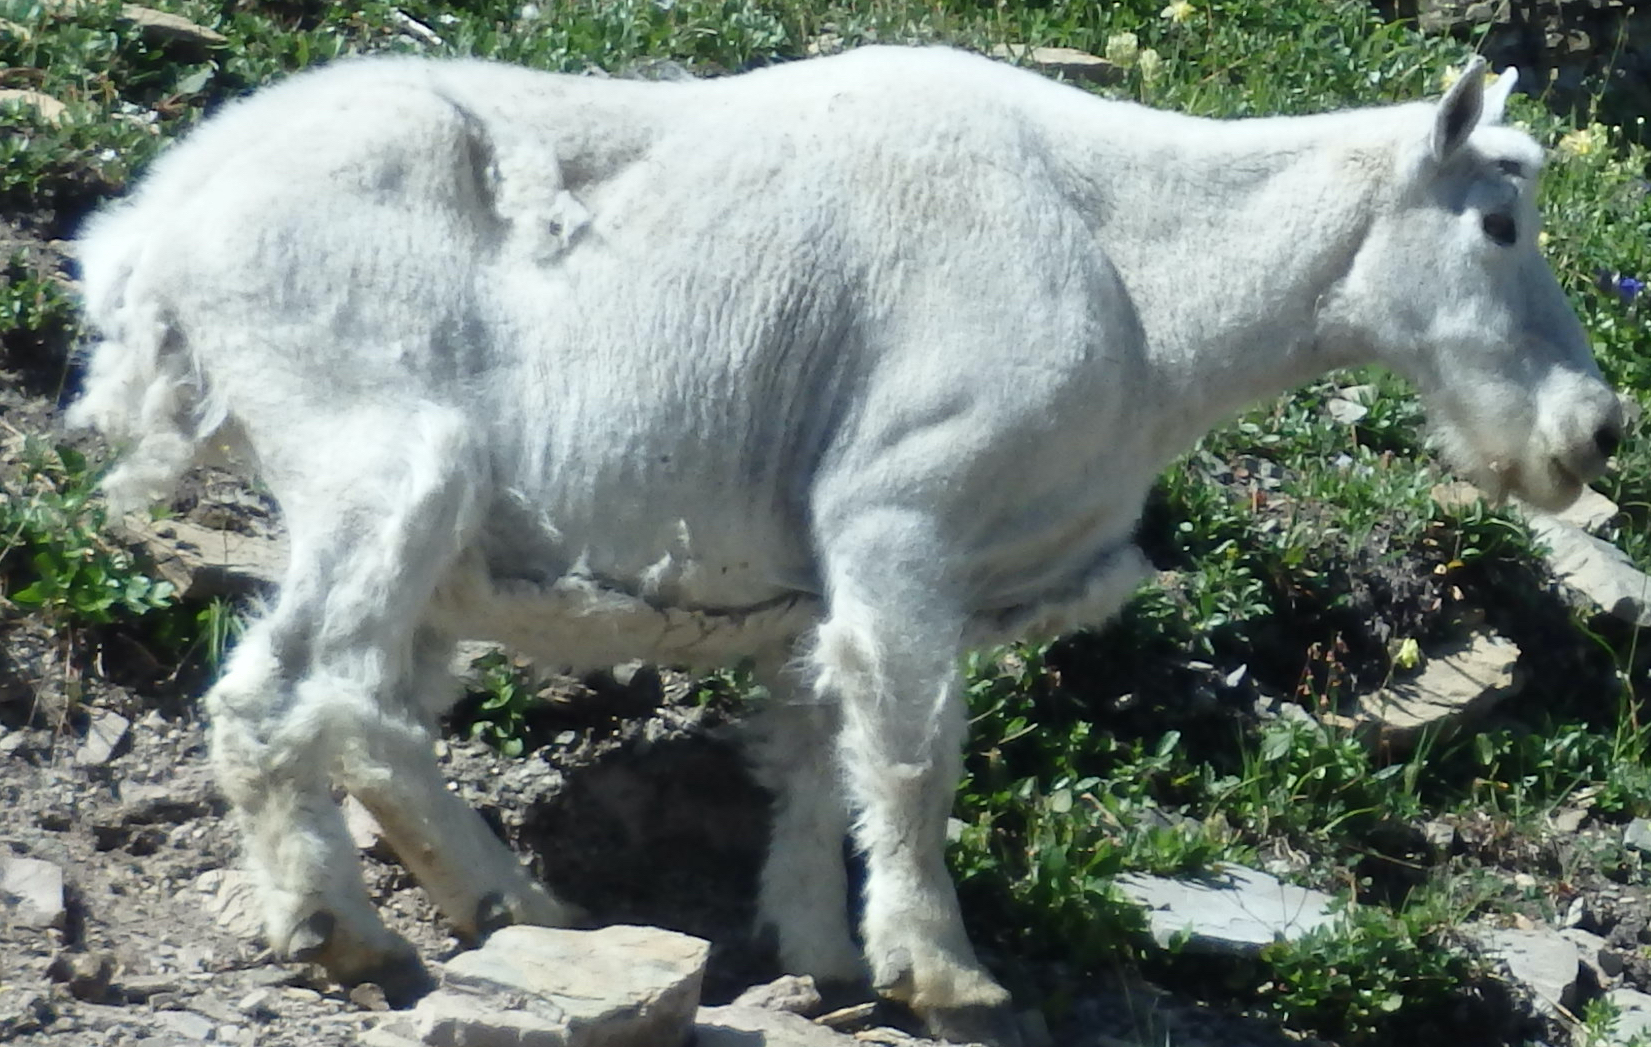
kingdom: Animalia
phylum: Chordata
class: Mammalia
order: Artiodactyla
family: Bovidae
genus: Oreamnos
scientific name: Oreamnos americanus
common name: Mountain goat
